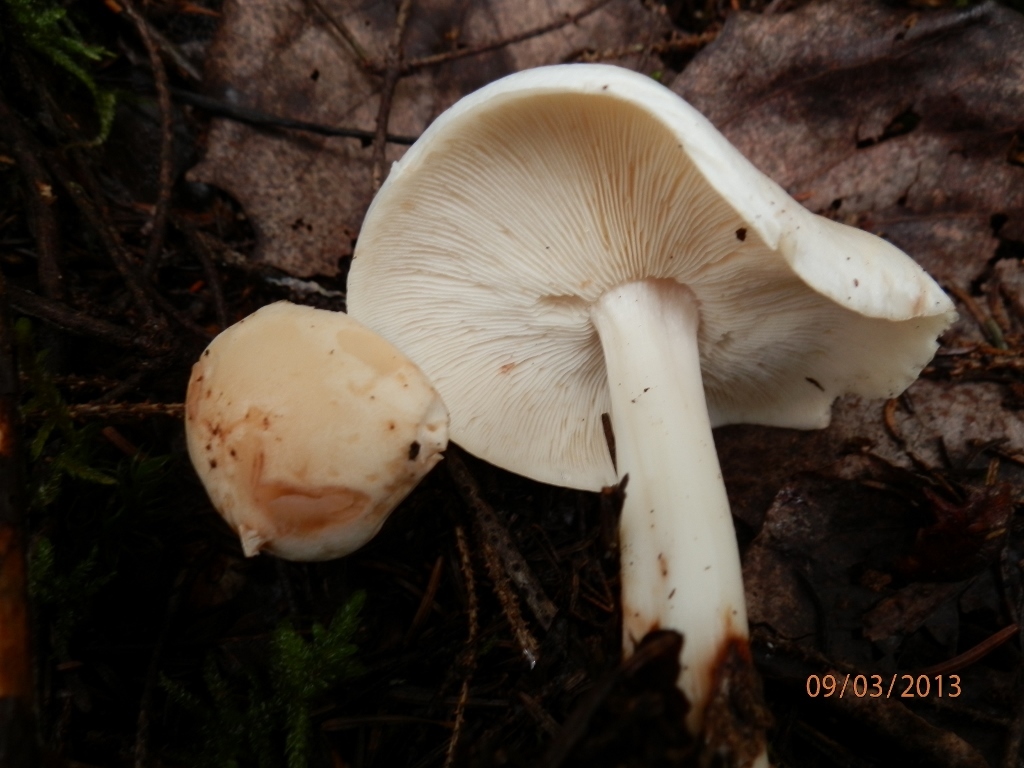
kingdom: Fungi
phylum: Basidiomycota
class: Agaricomycetes
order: Agaricales
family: Omphalotaceae
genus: Rhodocollybia
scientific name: Rhodocollybia maculata
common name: Spotted tough-shank
